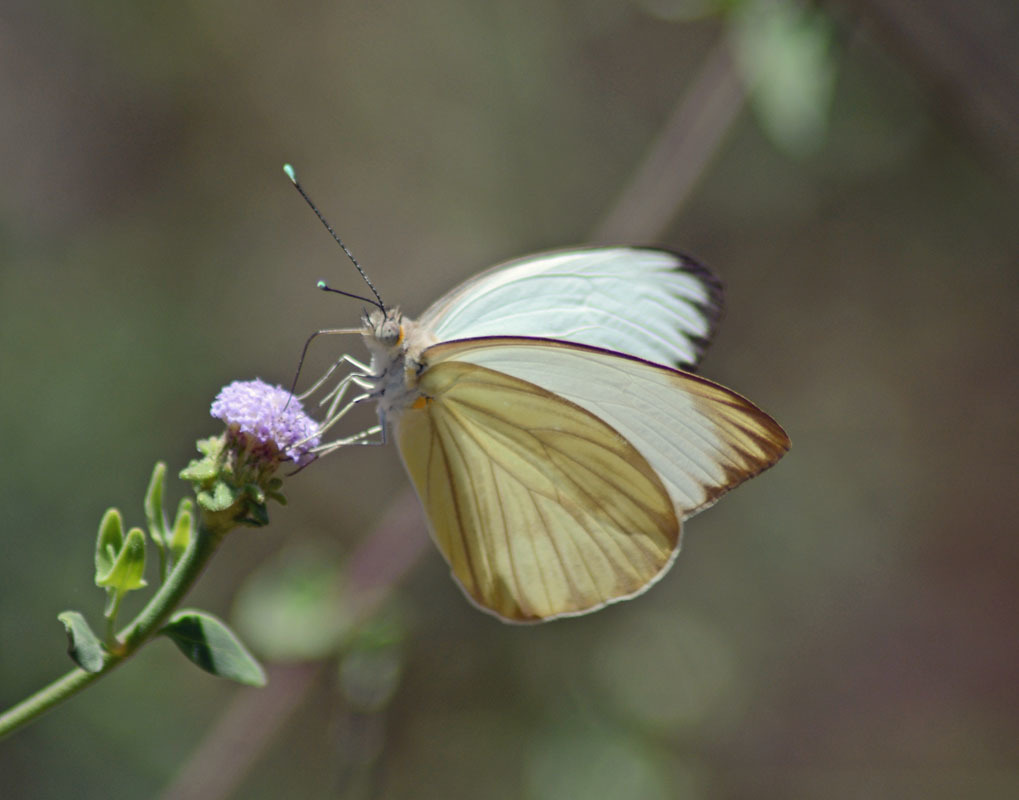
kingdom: Animalia
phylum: Arthropoda
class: Insecta
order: Lepidoptera
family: Pieridae
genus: Ascia
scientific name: Ascia monuste
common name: Great southern white
